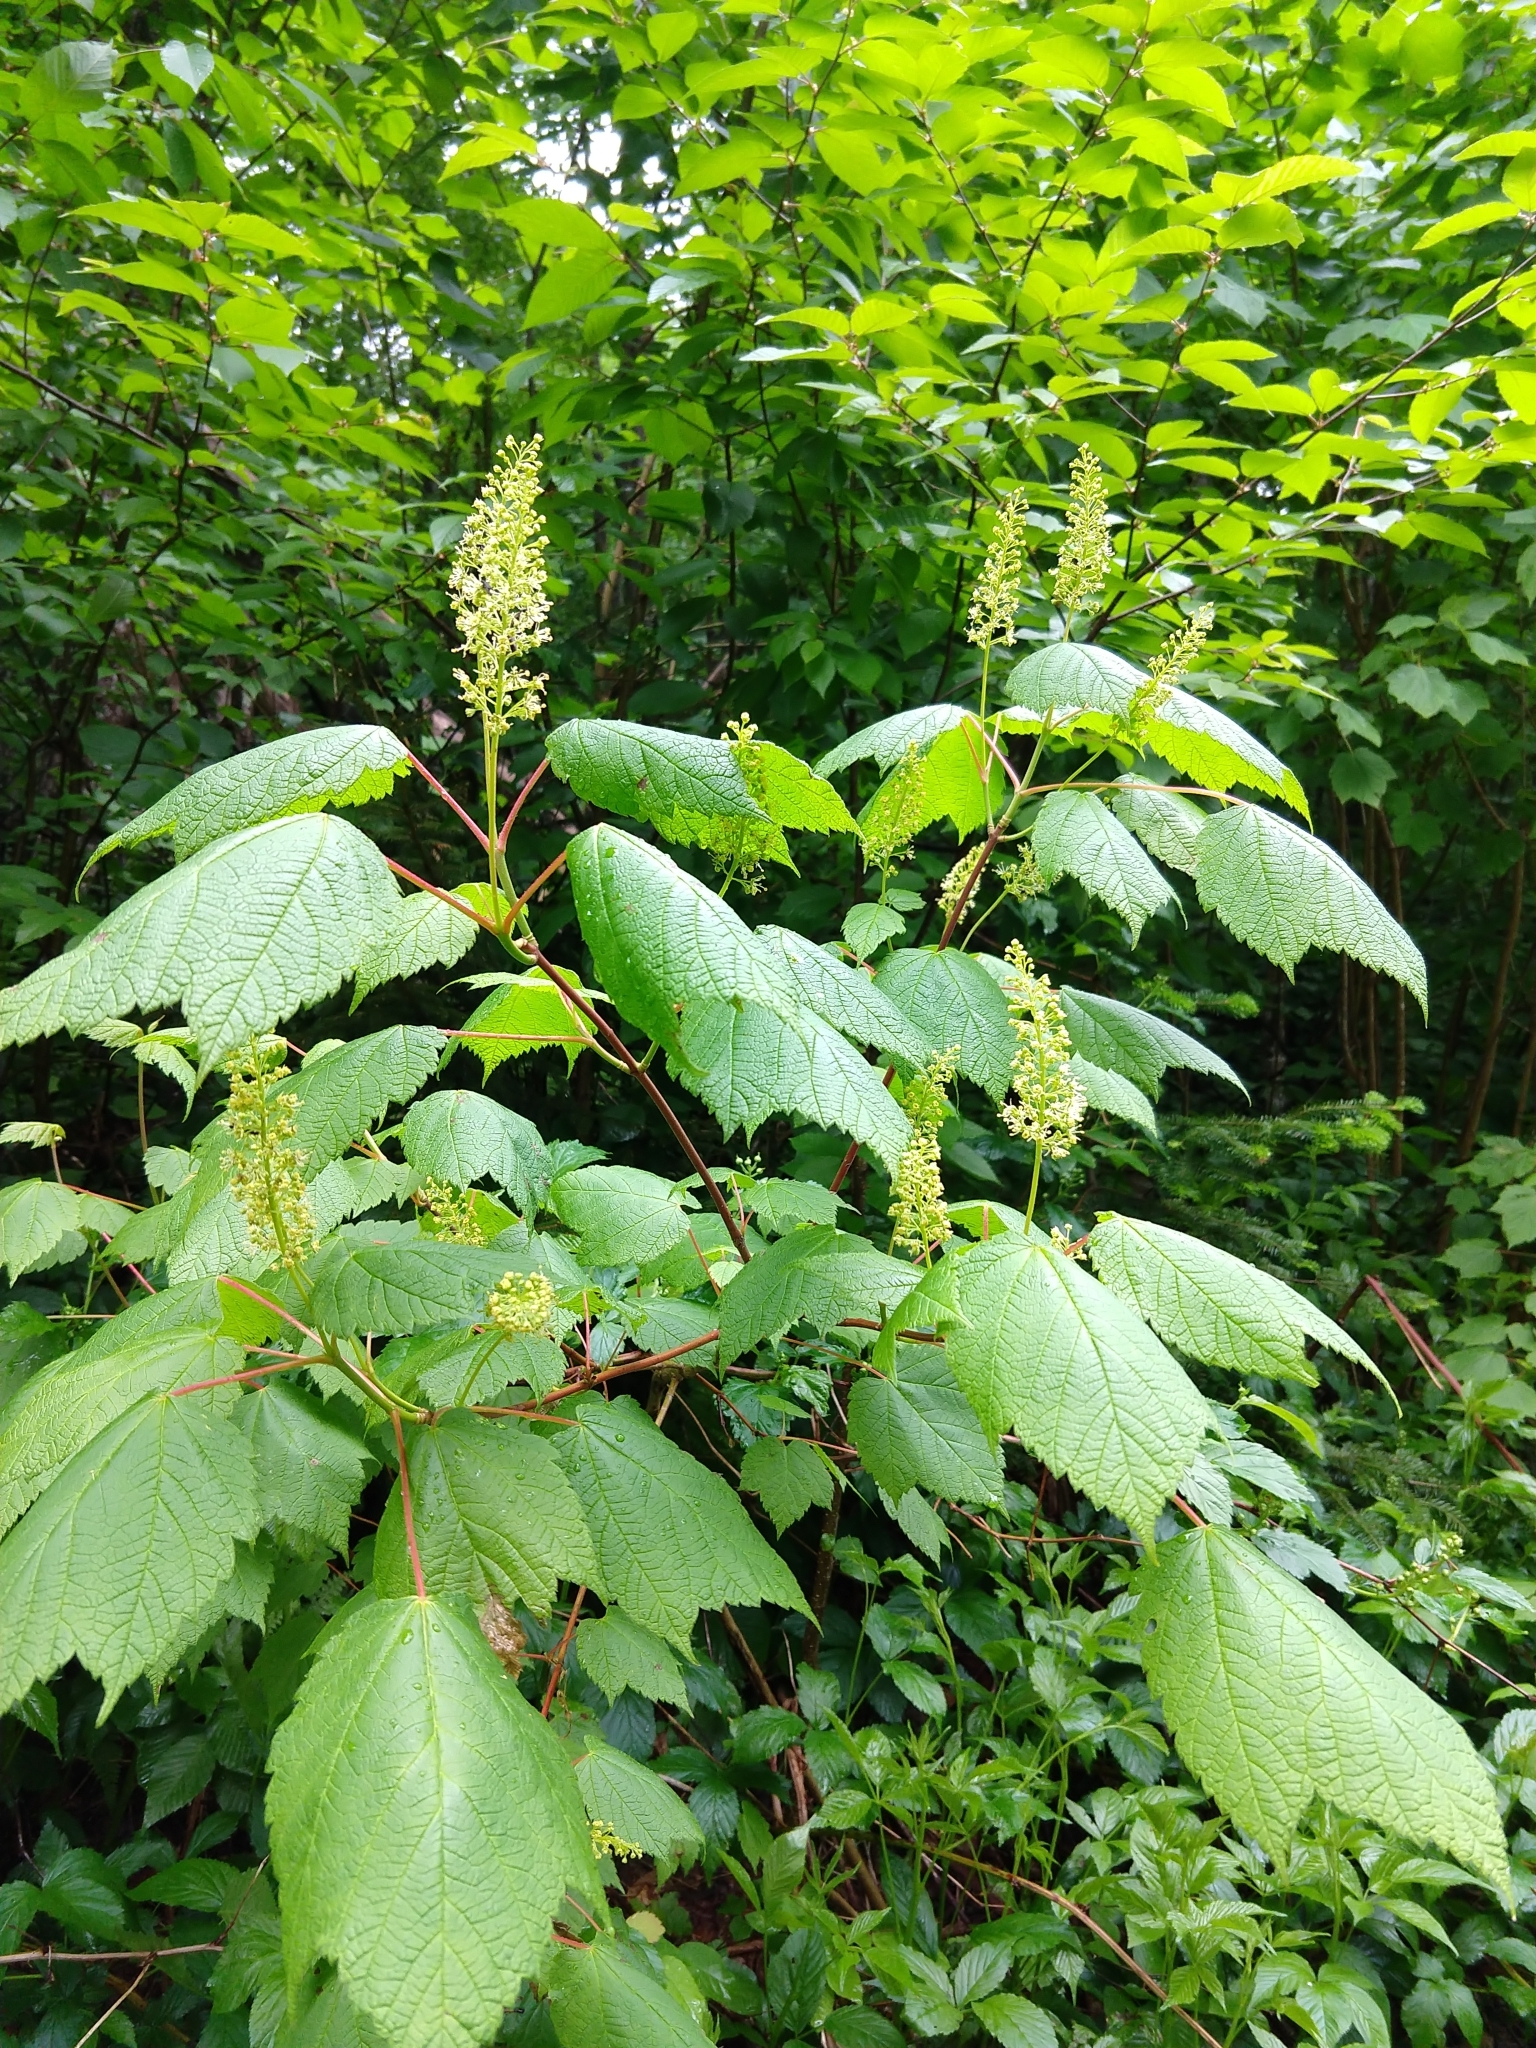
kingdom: Plantae
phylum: Tracheophyta
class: Magnoliopsida
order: Sapindales
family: Sapindaceae
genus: Acer
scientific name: Acer spicatum
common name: Mountain maple
